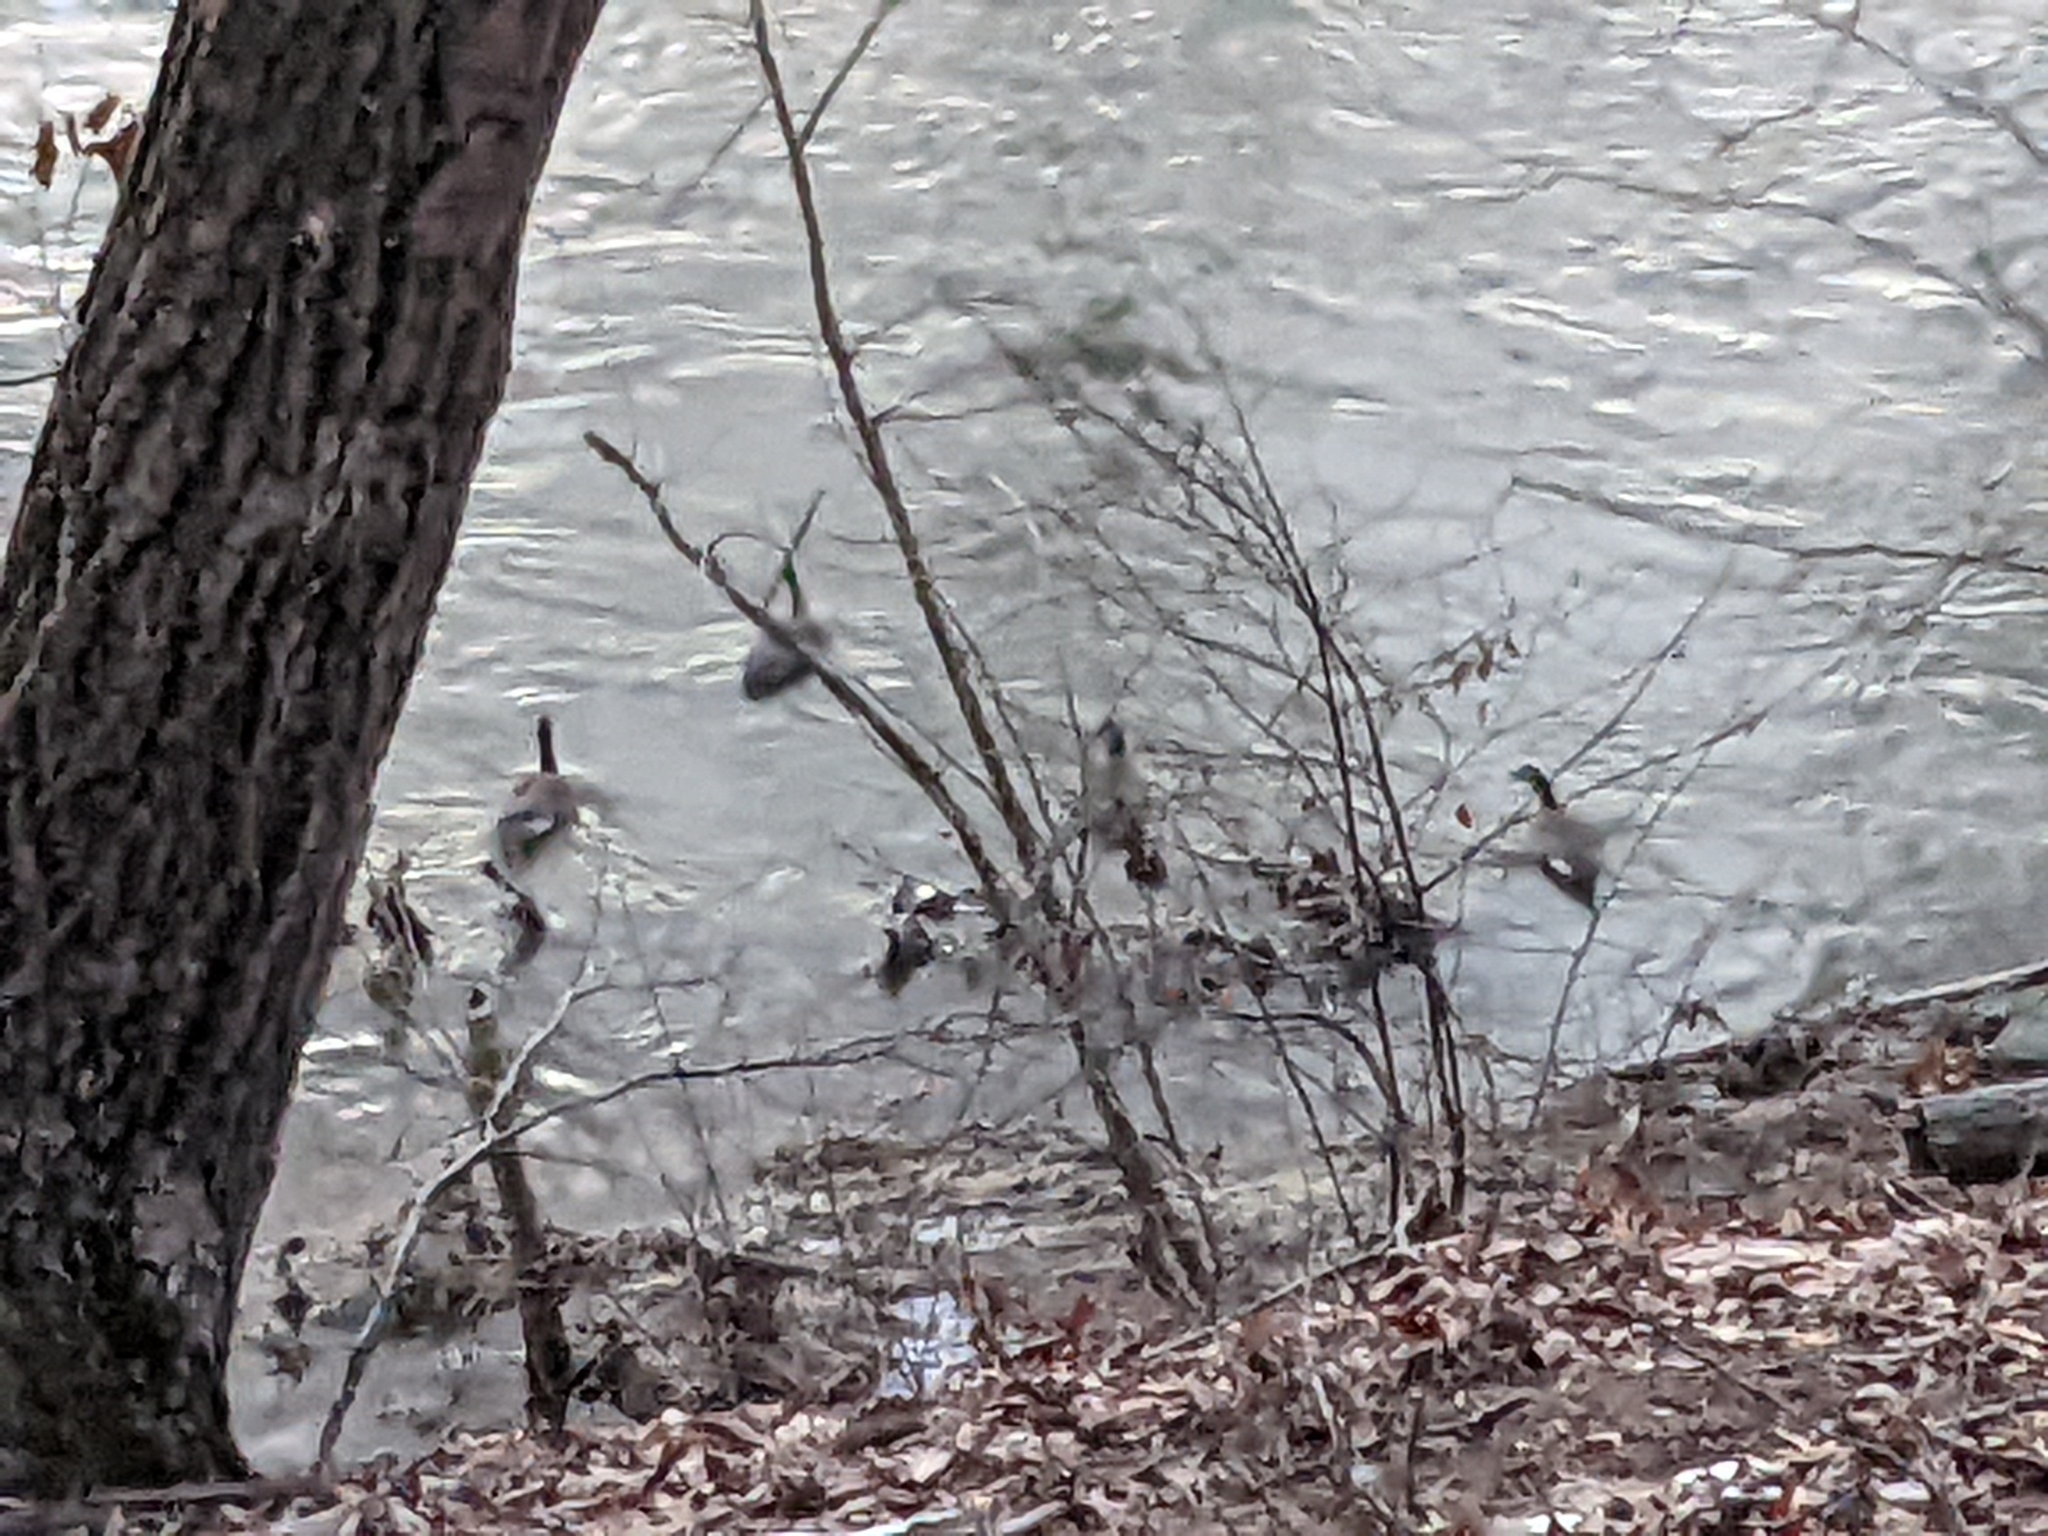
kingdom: Animalia
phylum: Chordata
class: Aves
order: Anseriformes
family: Anatidae
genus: Branta
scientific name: Branta canadensis
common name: Canada goose
